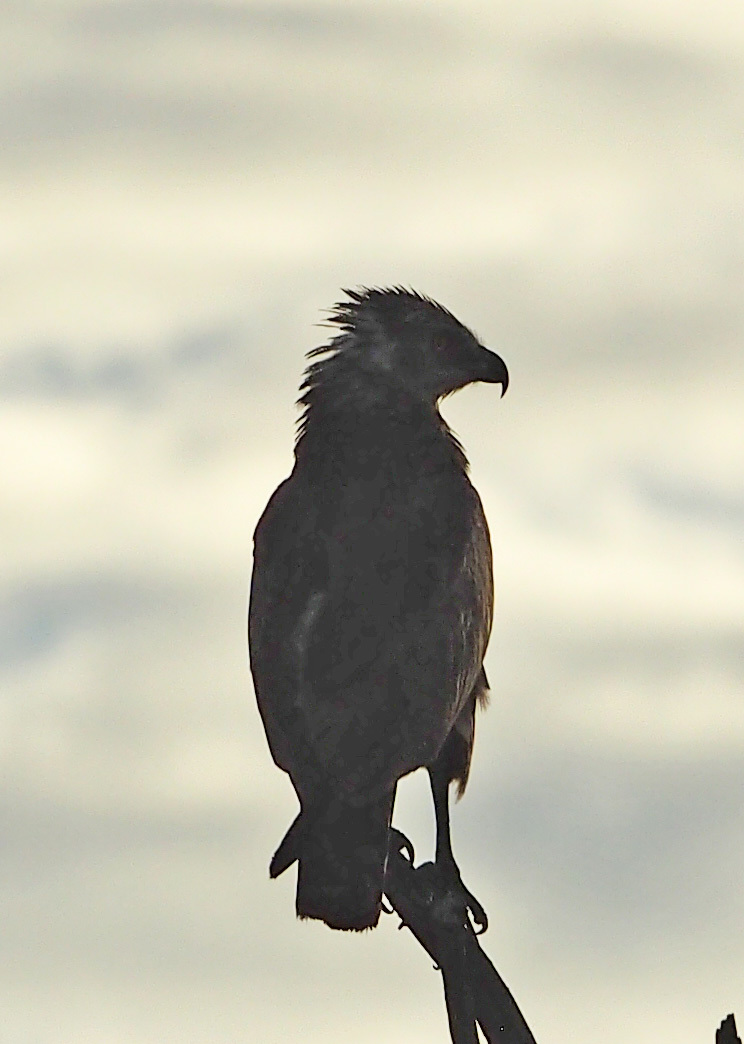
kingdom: Animalia
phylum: Chordata
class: Aves
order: Accipitriformes
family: Accipitridae
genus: Circaetus
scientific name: Circaetus cinereus
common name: Brown snake eagle
